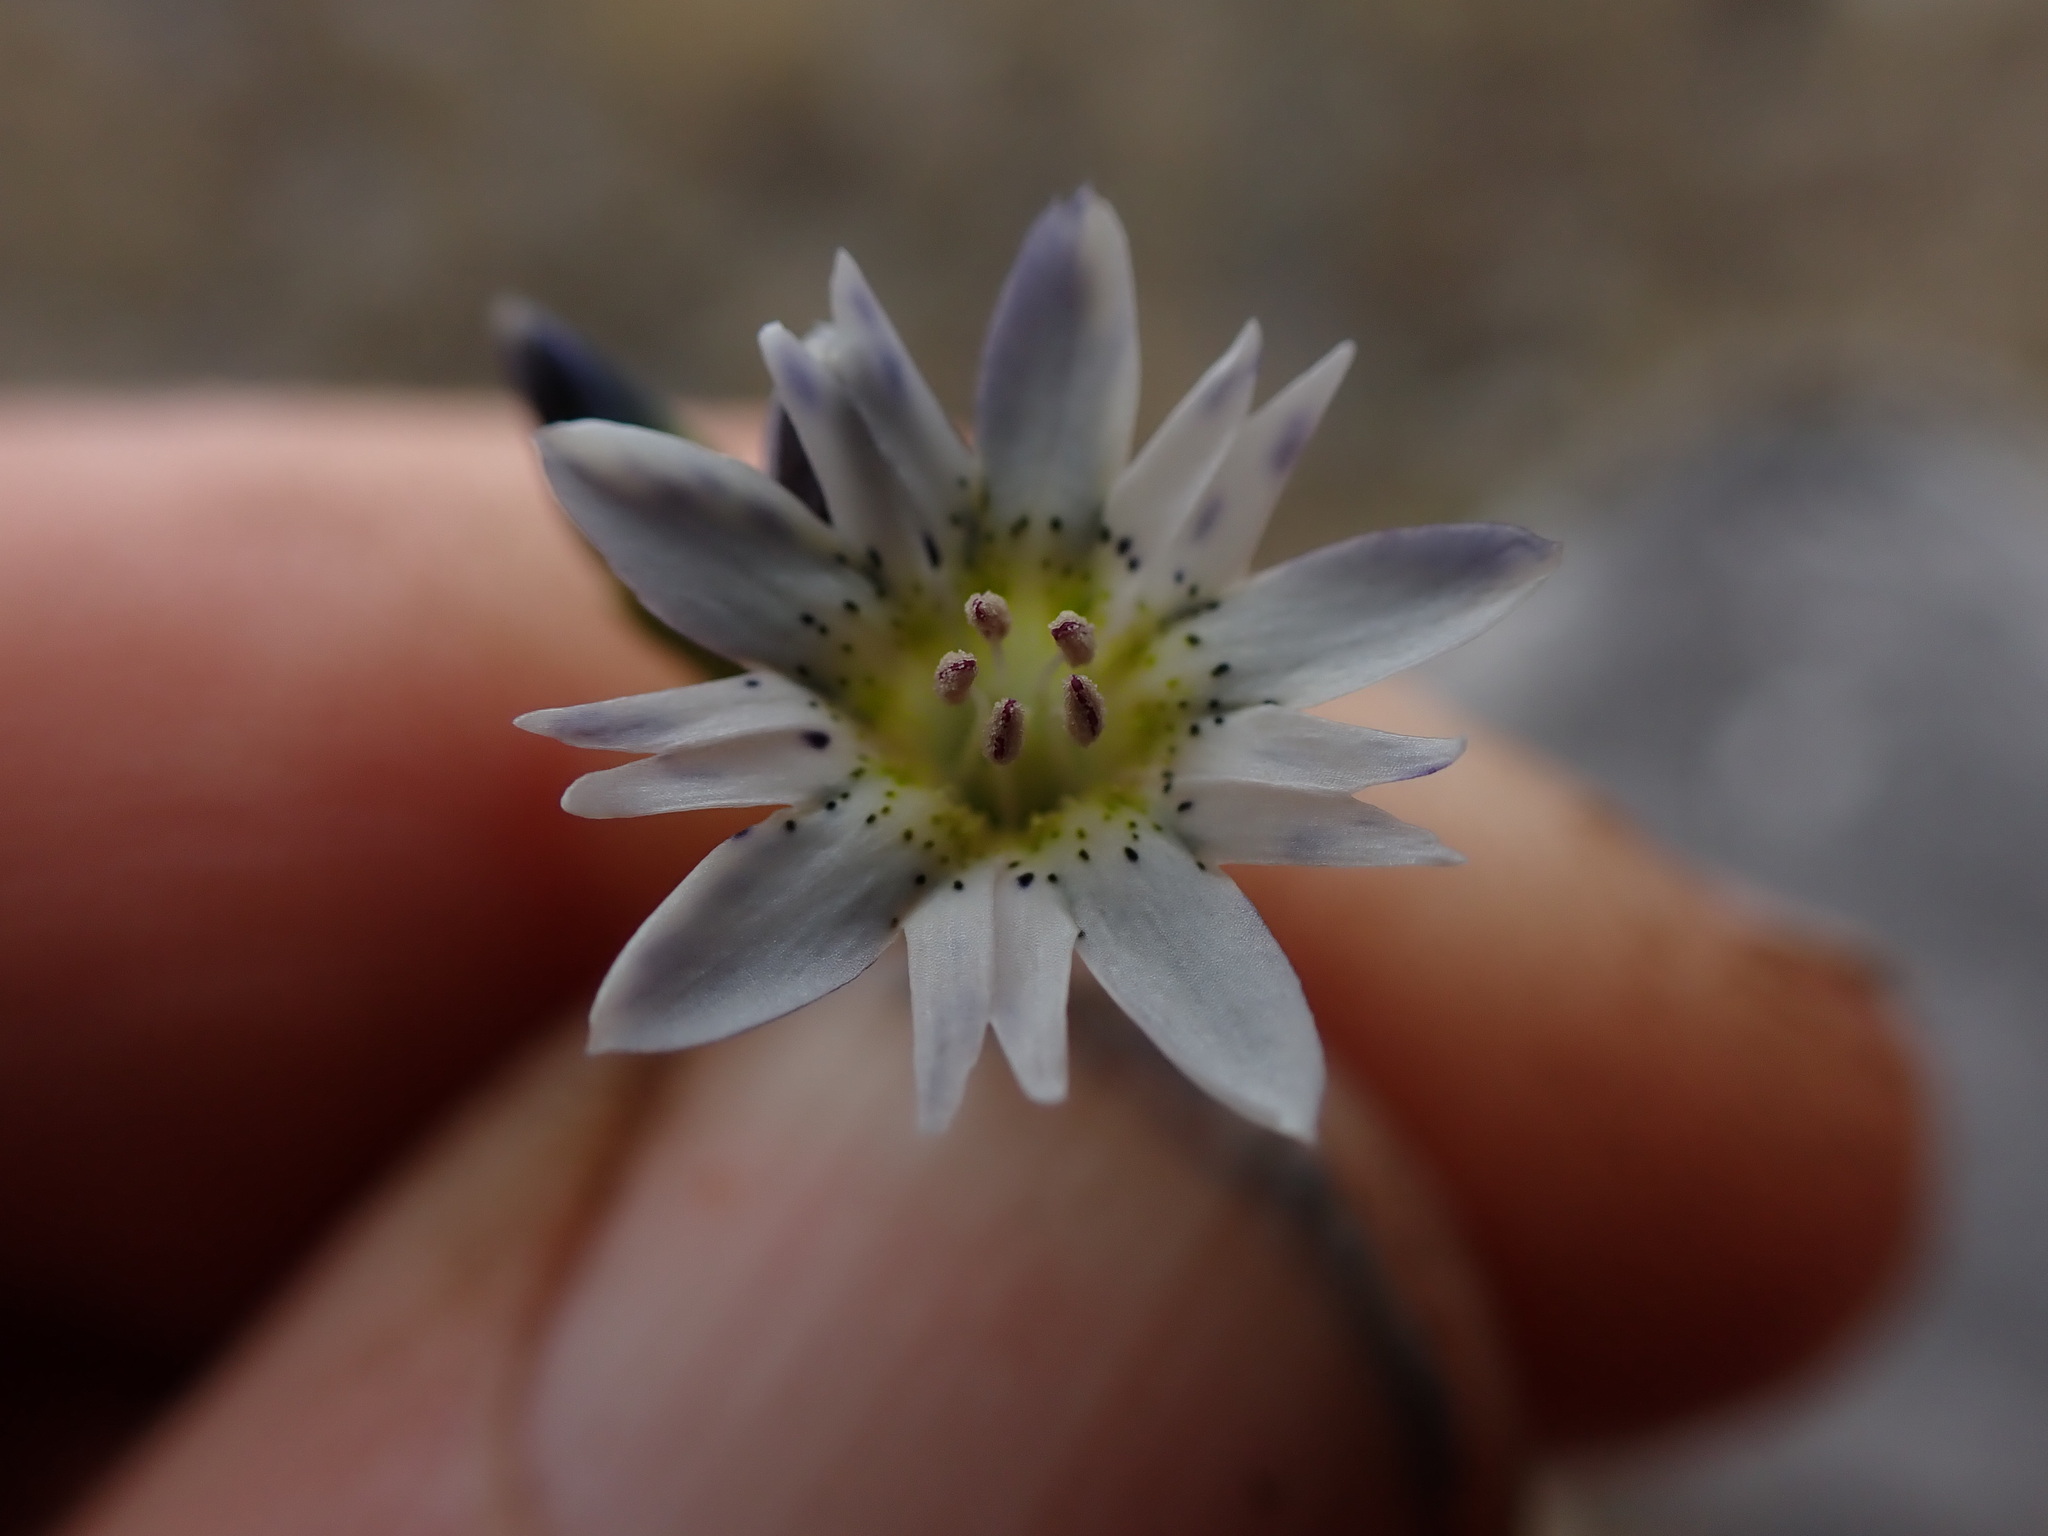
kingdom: Plantae
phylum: Tracheophyta
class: Magnoliopsida
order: Gentianales
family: Gentianaceae
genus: Gentiana
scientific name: Gentiana douglasiana
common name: Swamp gentian
